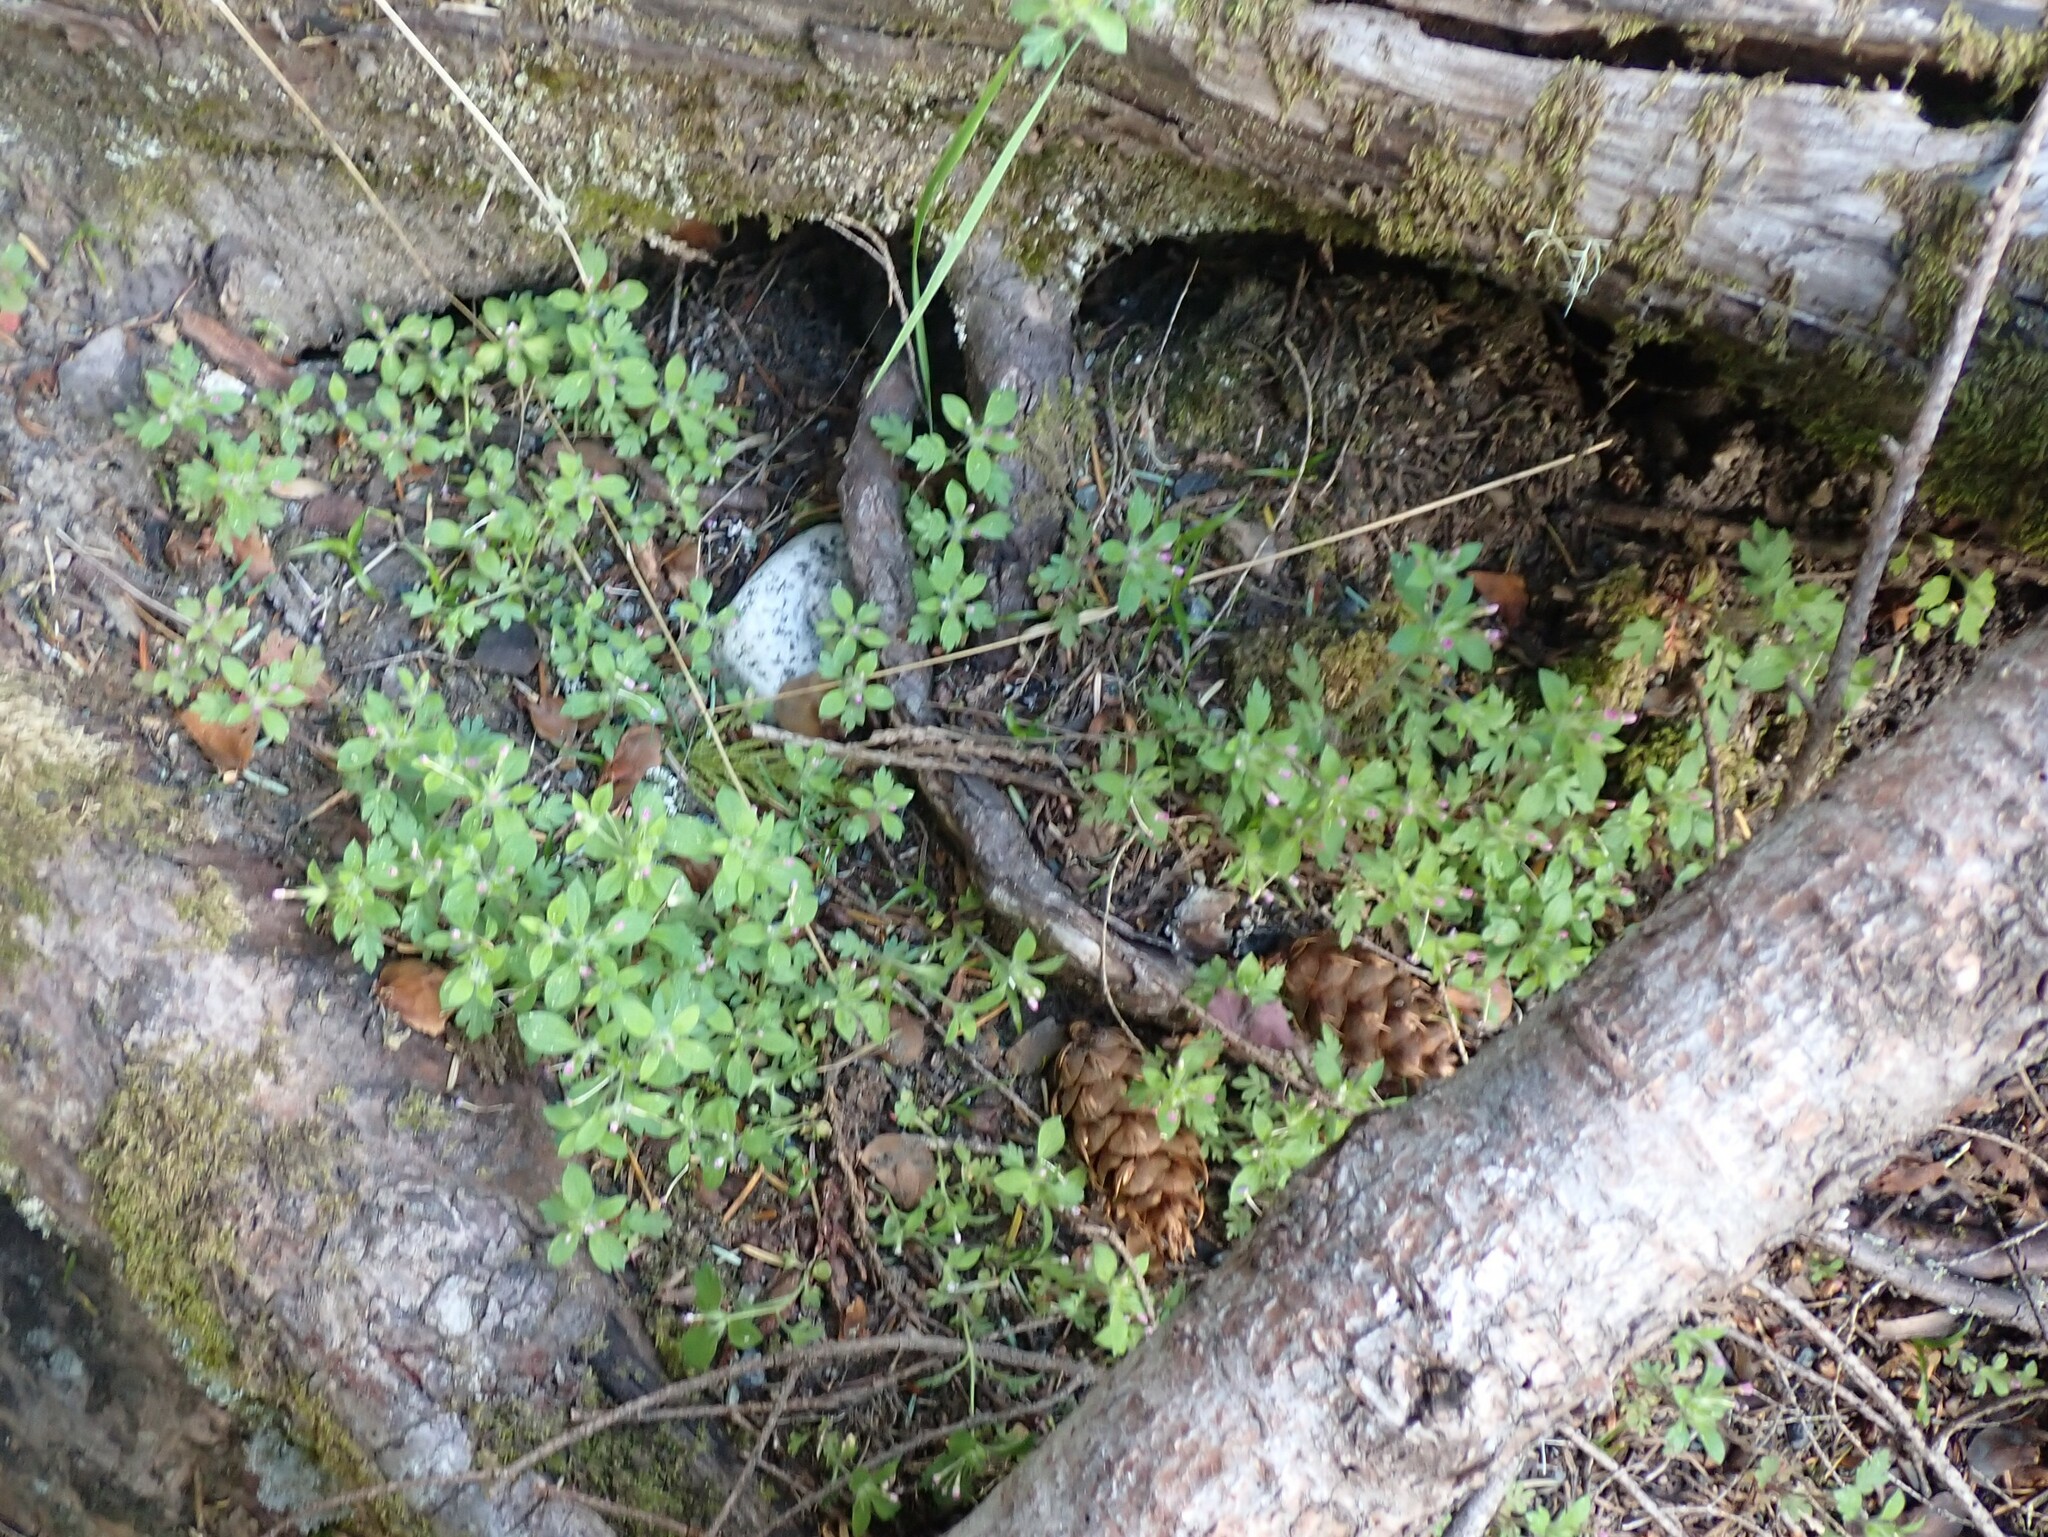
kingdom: Plantae
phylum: Tracheophyta
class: Magnoliopsida
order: Ericales
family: Polemoniaceae
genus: Collomia
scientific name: Collomia heterophylla
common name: Variable-leaved collomia
